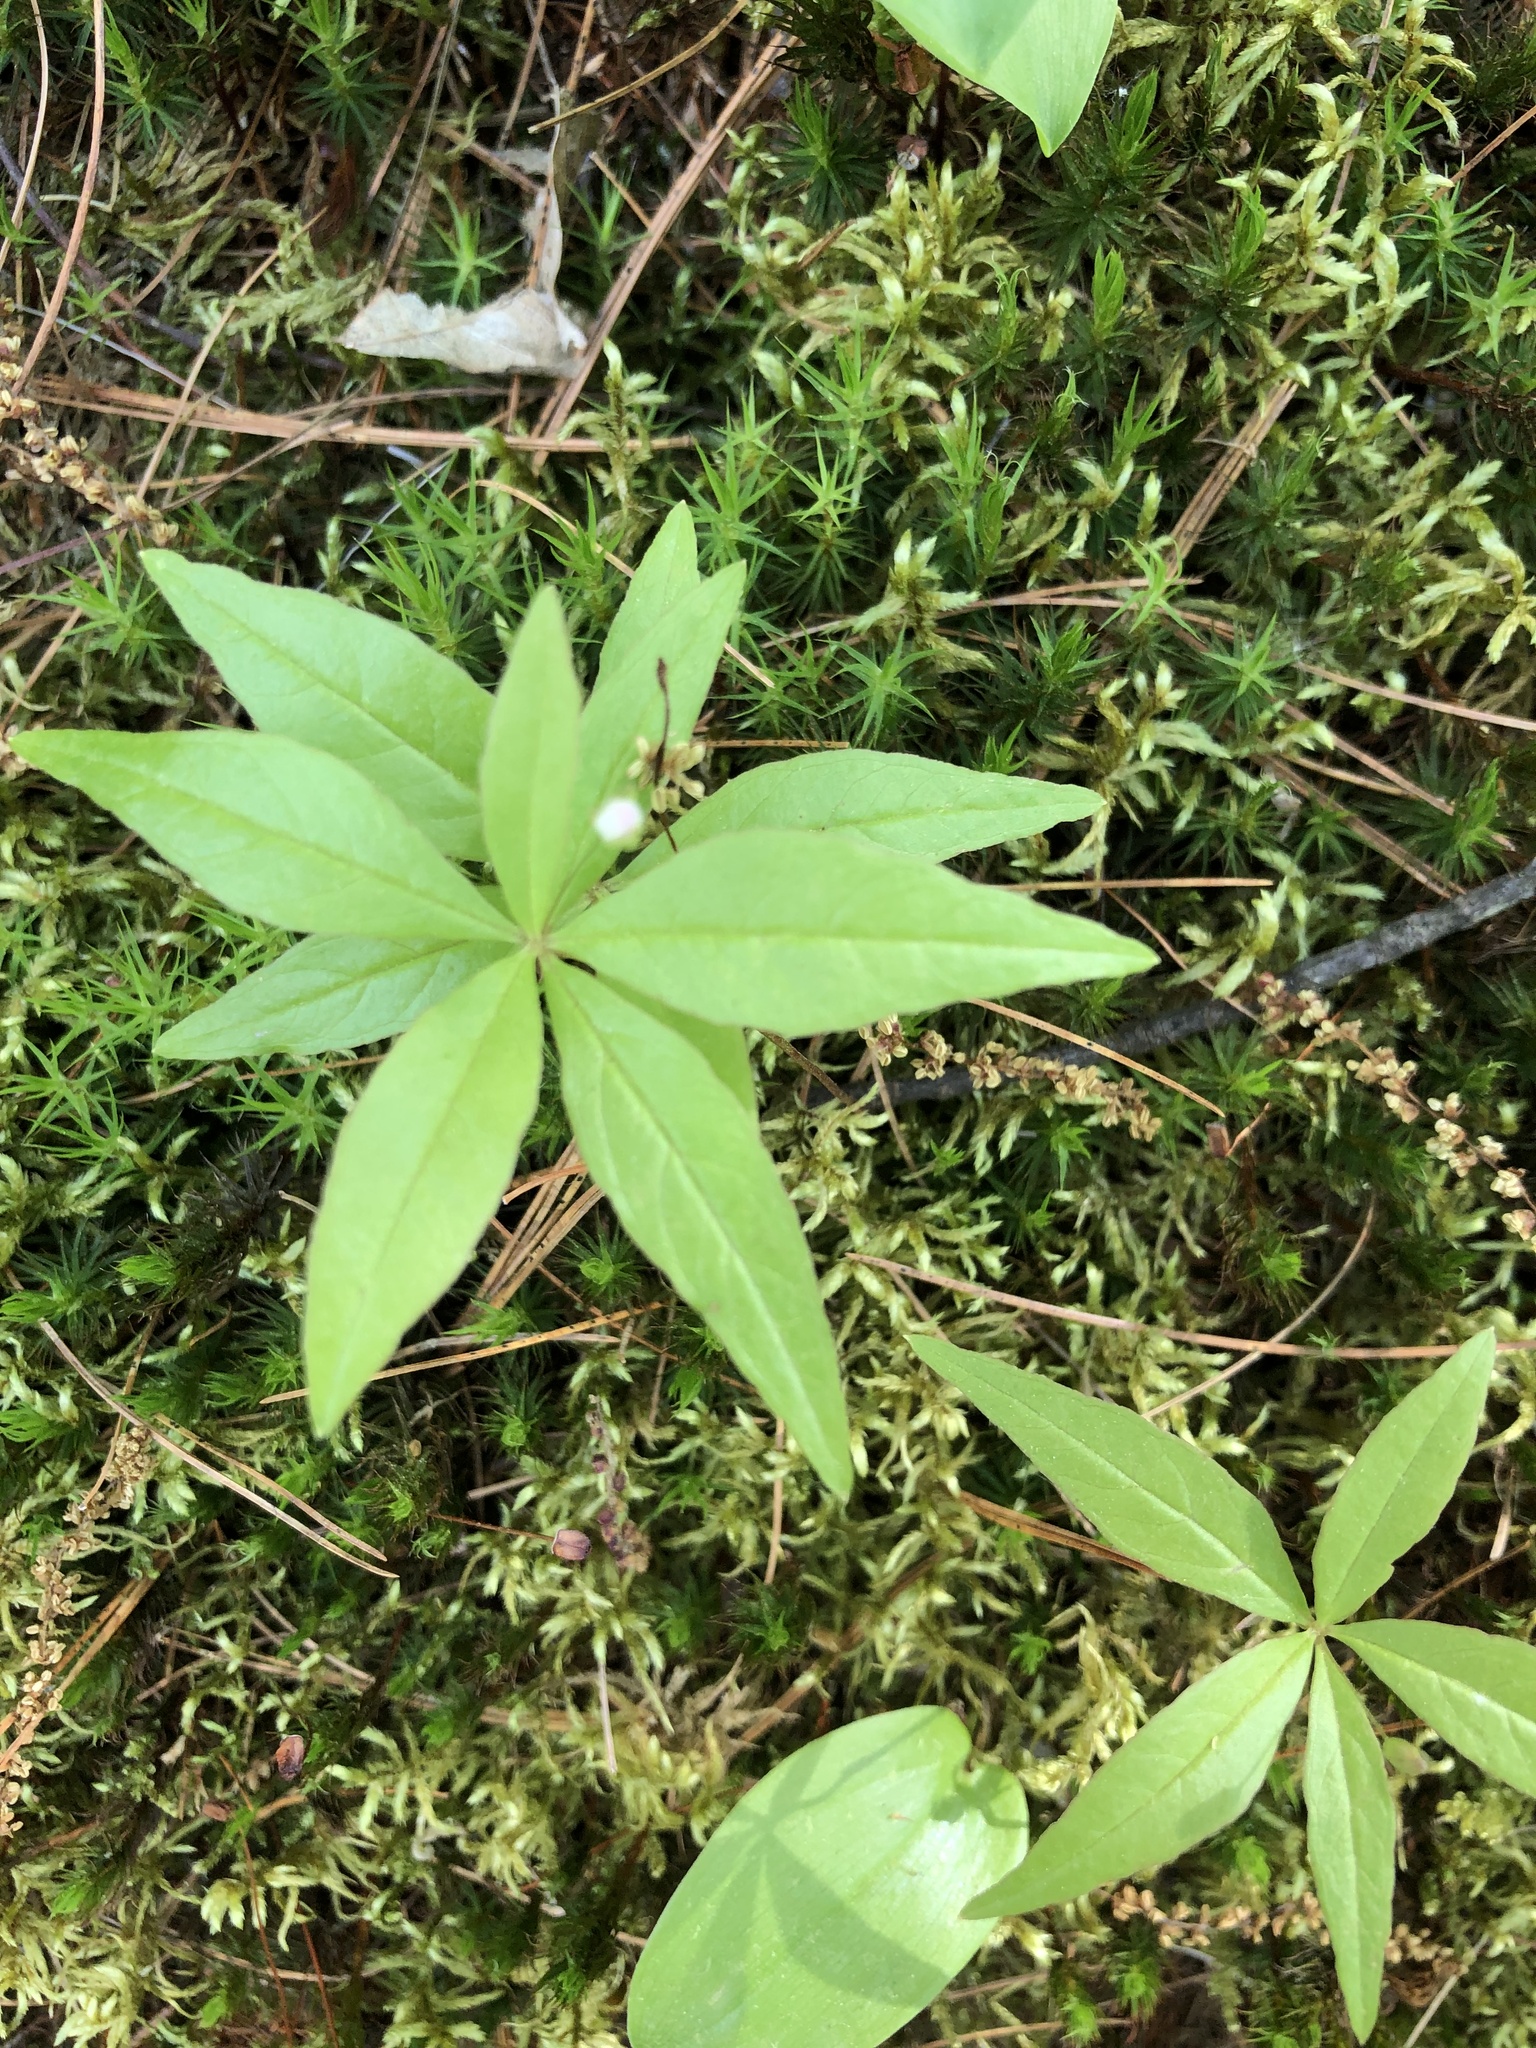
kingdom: Plantae
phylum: Tracheophyta
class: Magnoliopsida
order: Ericales
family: Primulaceae
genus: Lysimachia
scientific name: Lysimachia borealis
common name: American starflower
